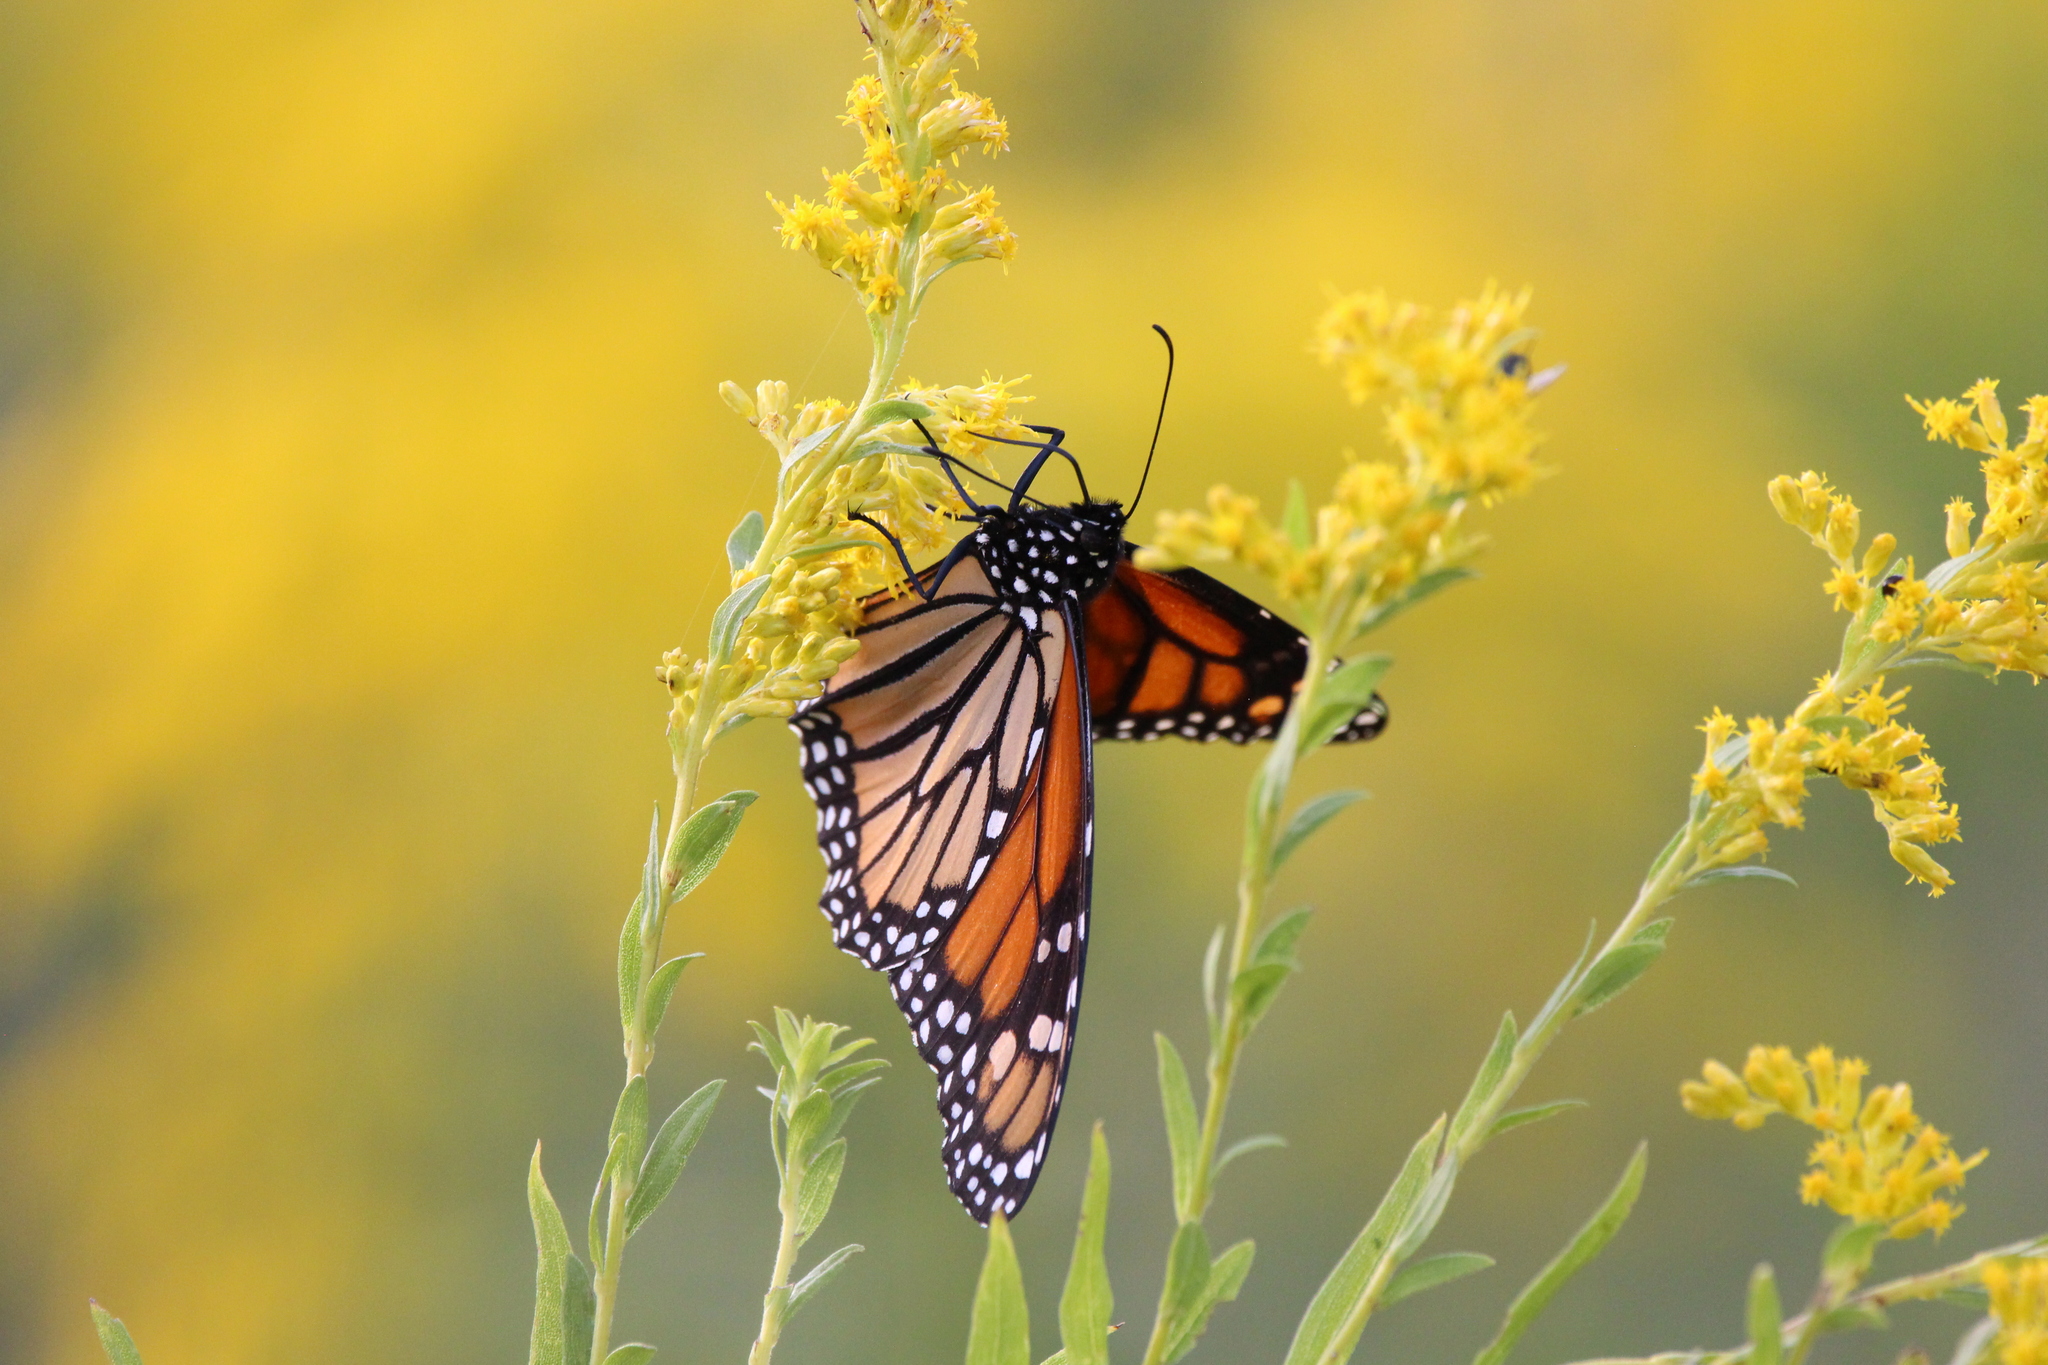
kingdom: Animalia
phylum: Arthropoda
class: Insecta
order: Lepidoptera
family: Nymphalidae
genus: Danaus
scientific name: Danaus plexippus
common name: Monarch
